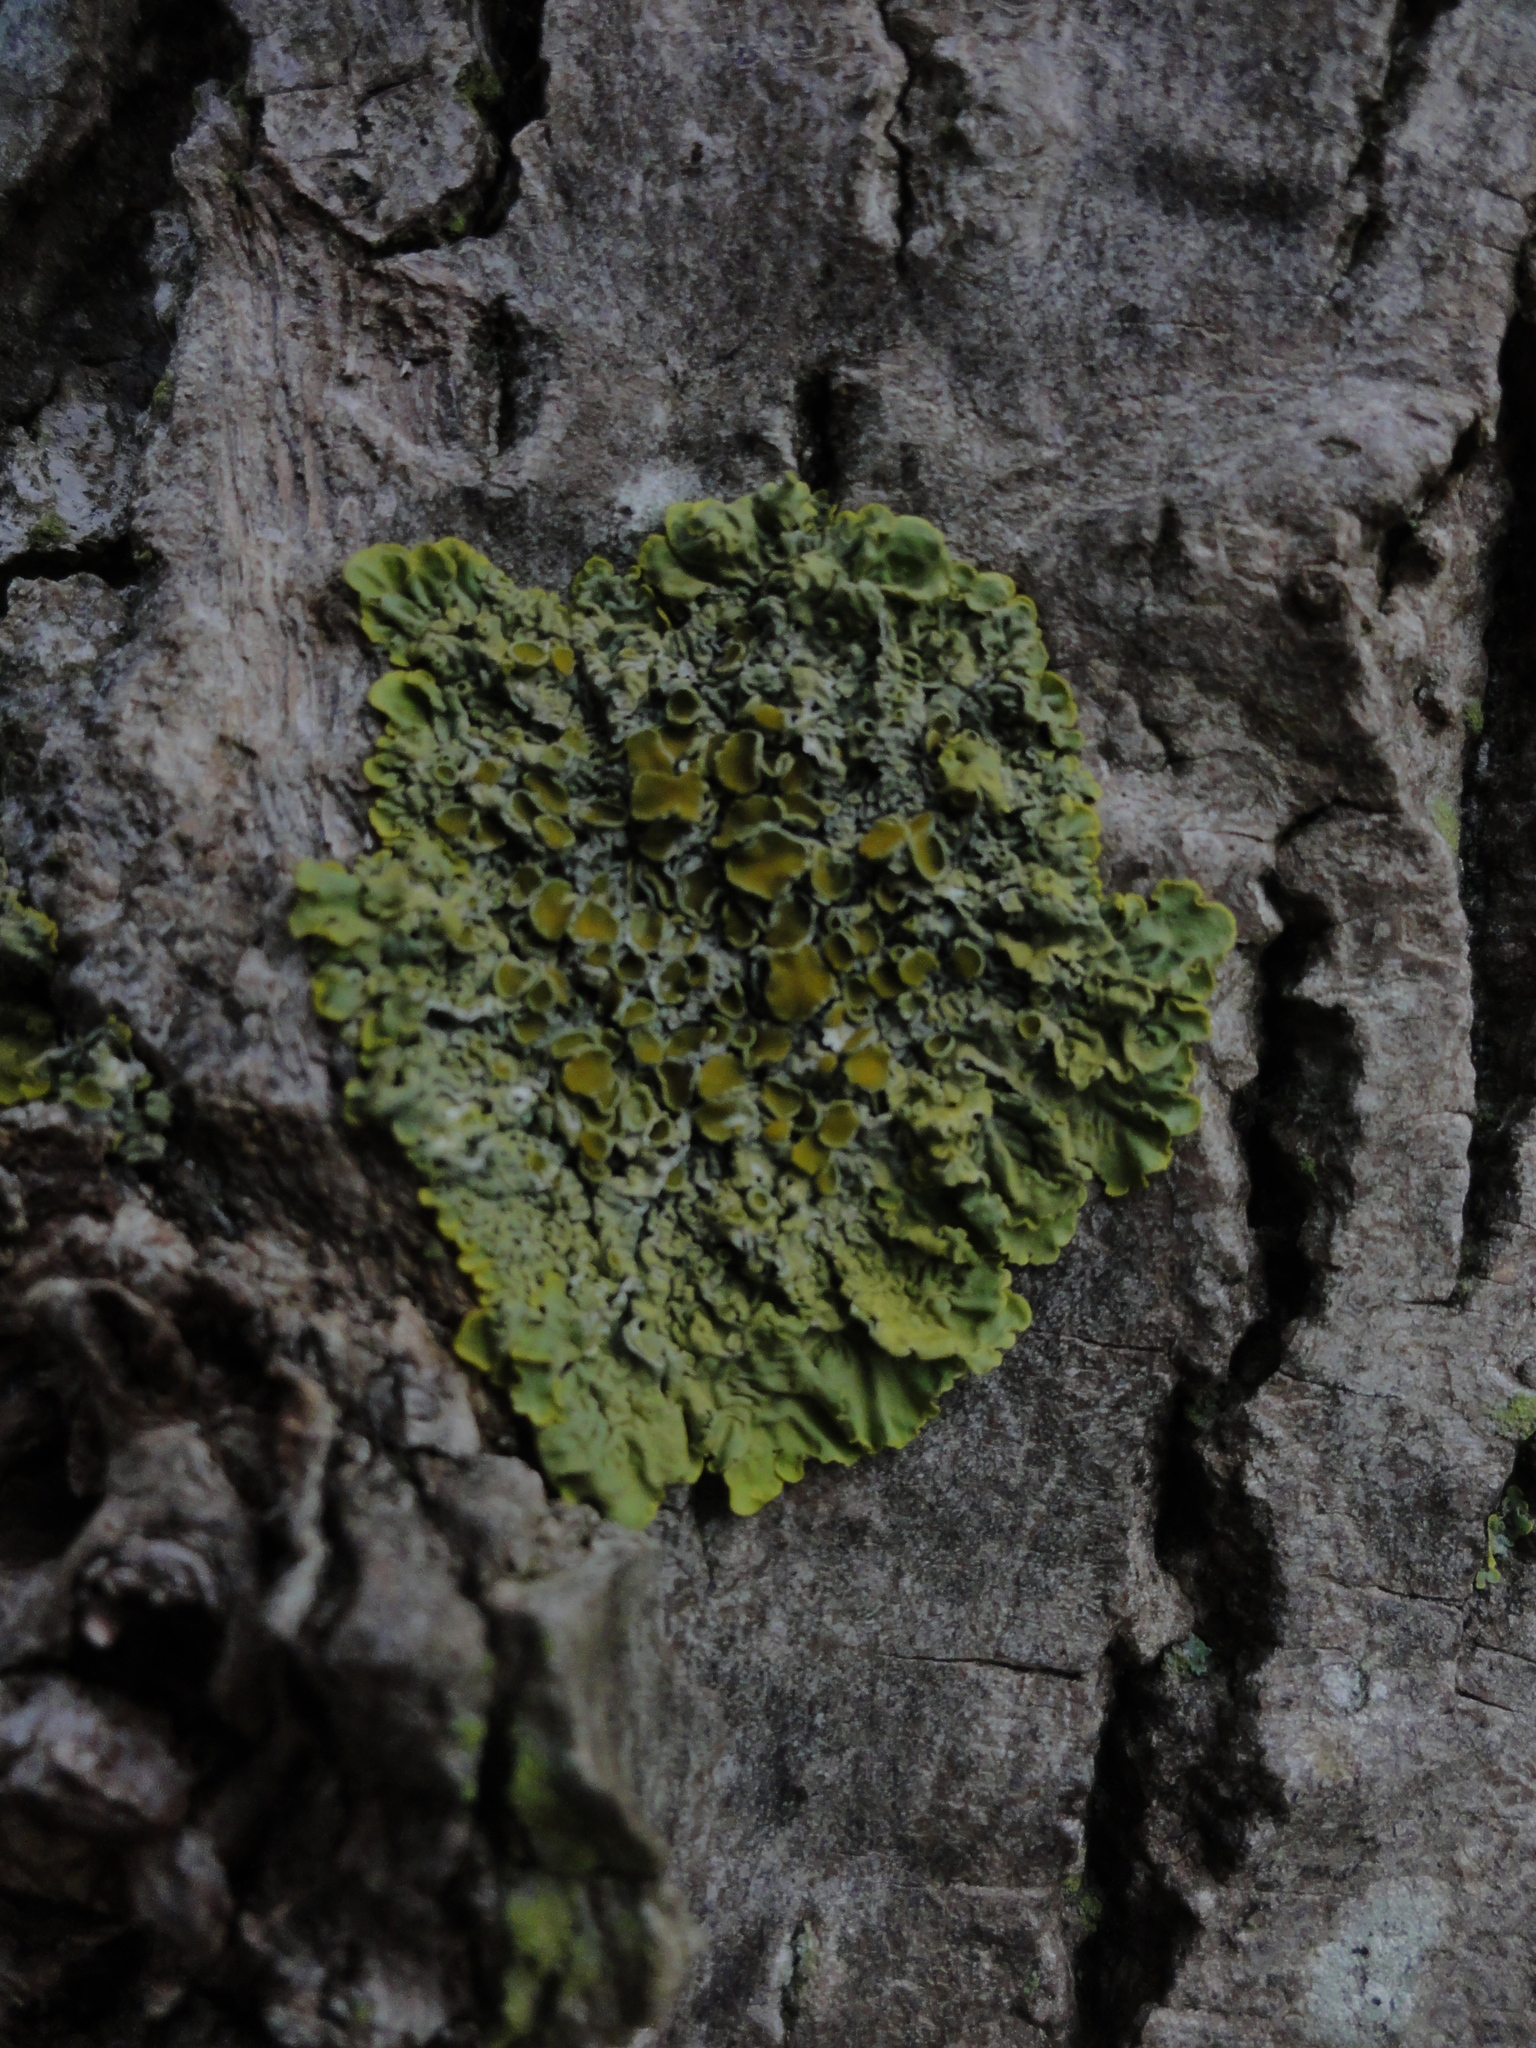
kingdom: Fungi
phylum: Ascomycota
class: Lecanoromycetes
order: Teloschistales
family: Teloschistaceae
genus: Xanthoria
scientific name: Xanthoria parietina
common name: Common orange lichen
